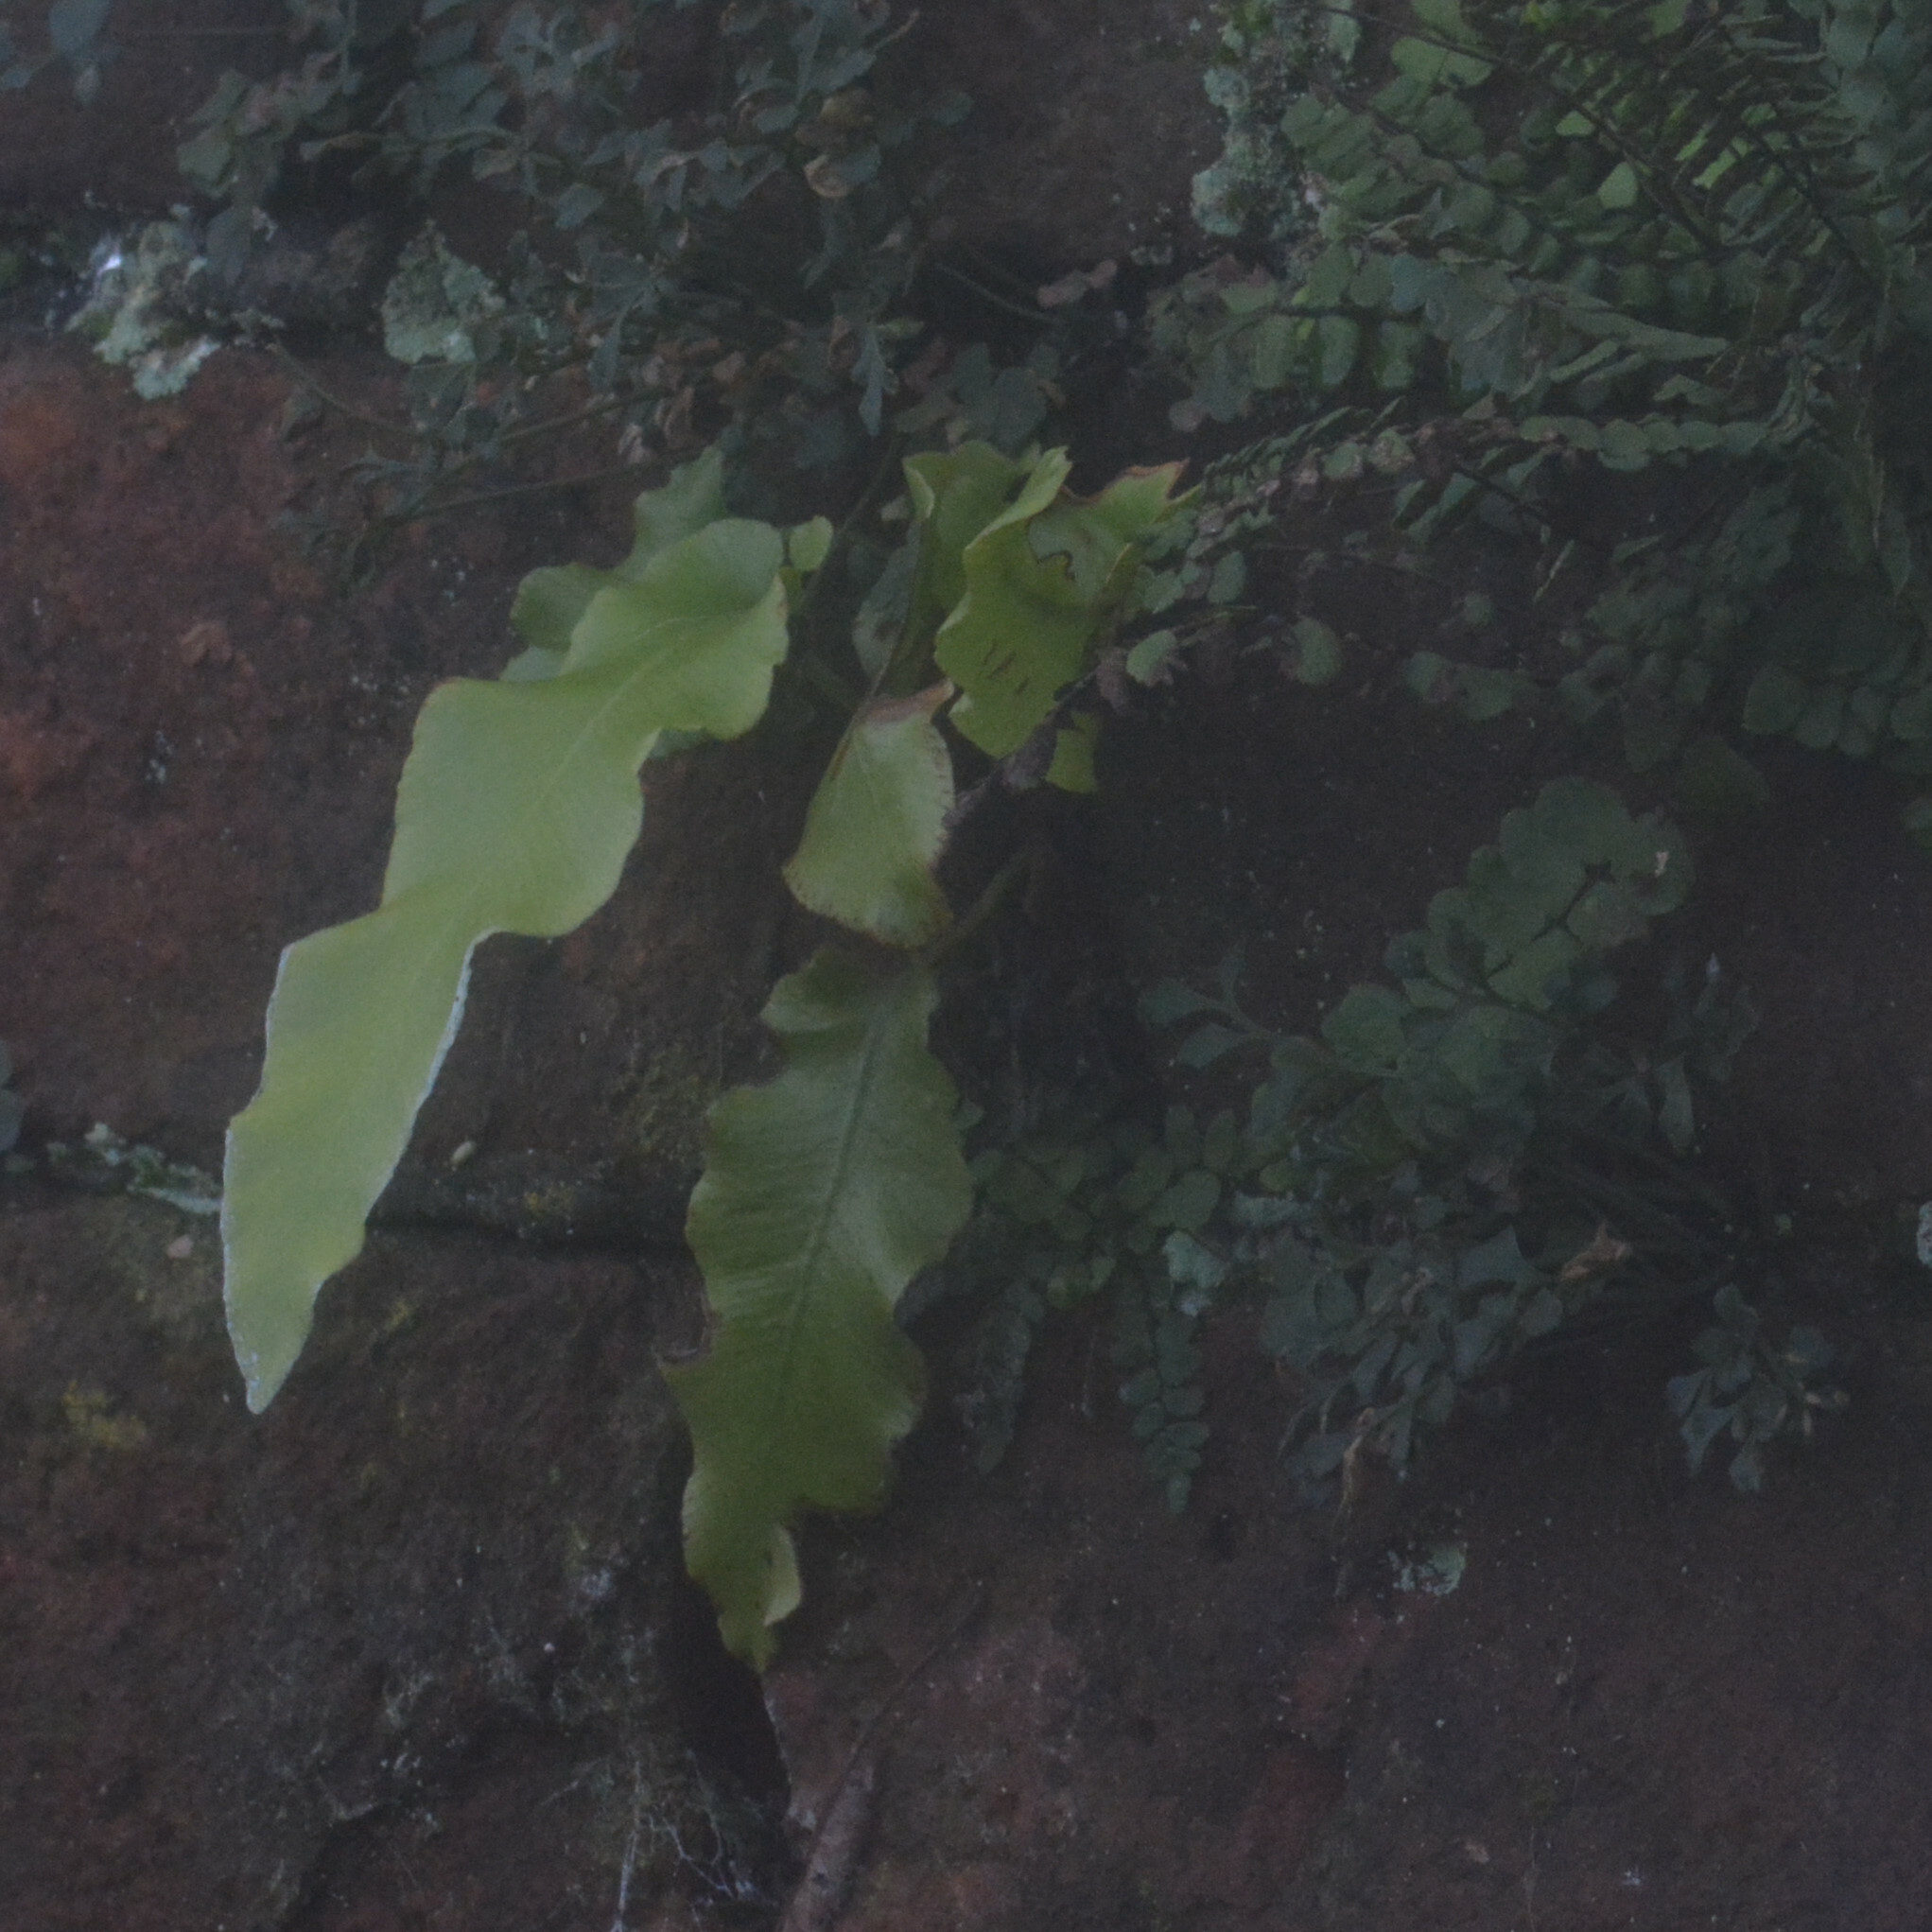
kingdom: Plantae
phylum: Tracheophyta
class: Polypodiopsida
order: Polypodiales
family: Aspleniaceae
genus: Asplenium
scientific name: Asplenium scolopendrium
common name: Hart's-tongue fern
